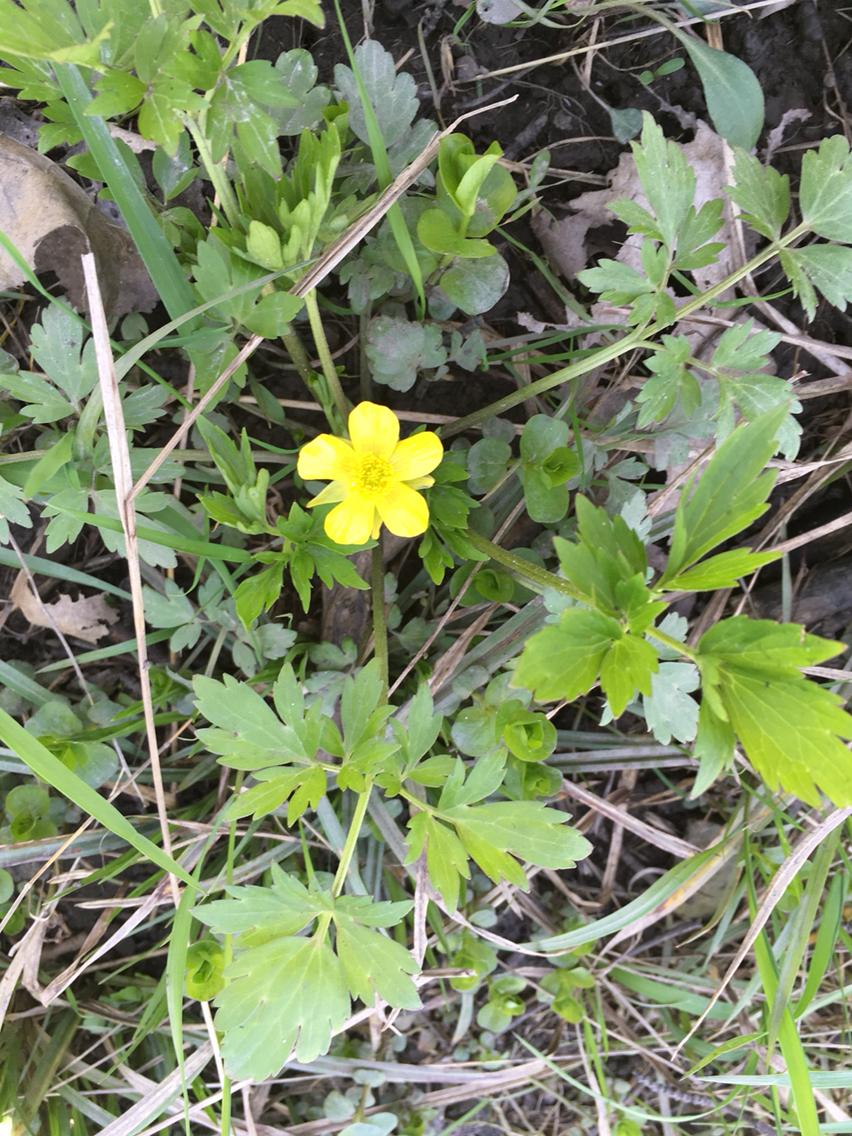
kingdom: Plantae
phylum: Tracheophyta
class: Magnoliopsida
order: Ranunculales
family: Ranunculaceae
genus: Ranunculus
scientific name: Ranunculus hispidus
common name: Bristly buttercup
